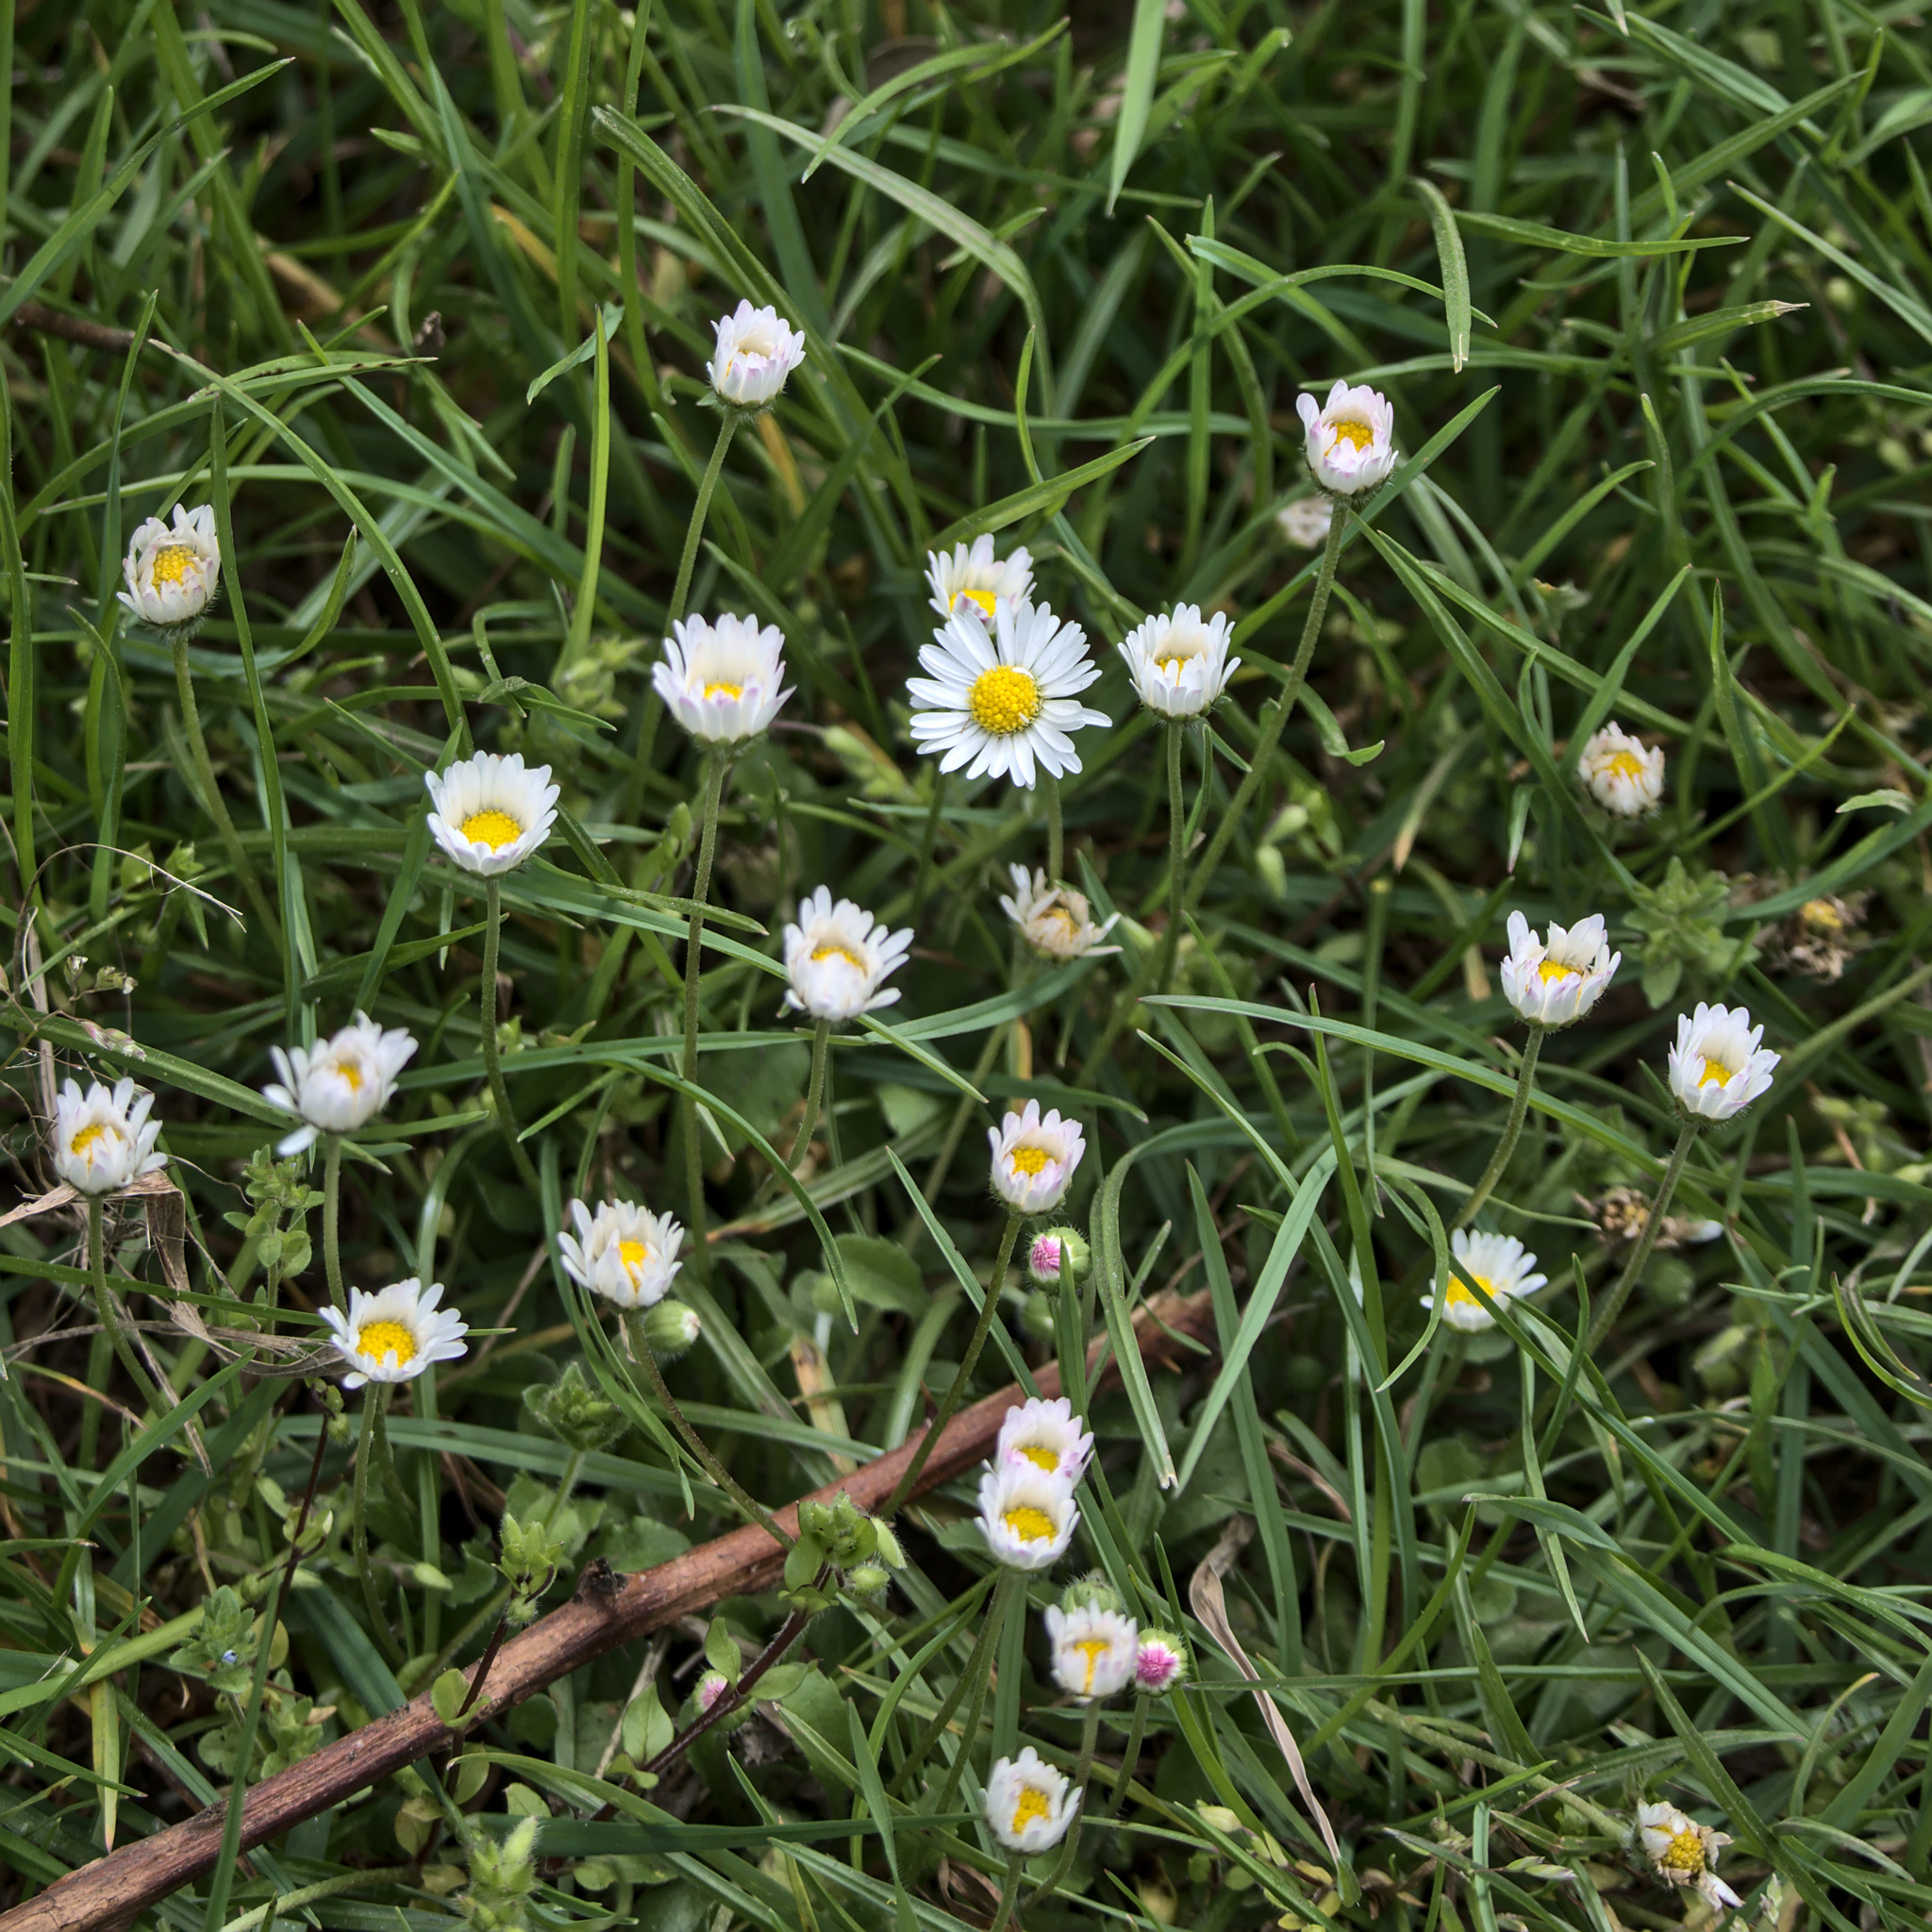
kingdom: Plantae
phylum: Tracheophyta
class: Magnoliopsida
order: Asterales
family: Asteraceae
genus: Bellis
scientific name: Bellis perennis
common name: Lawndaisy
